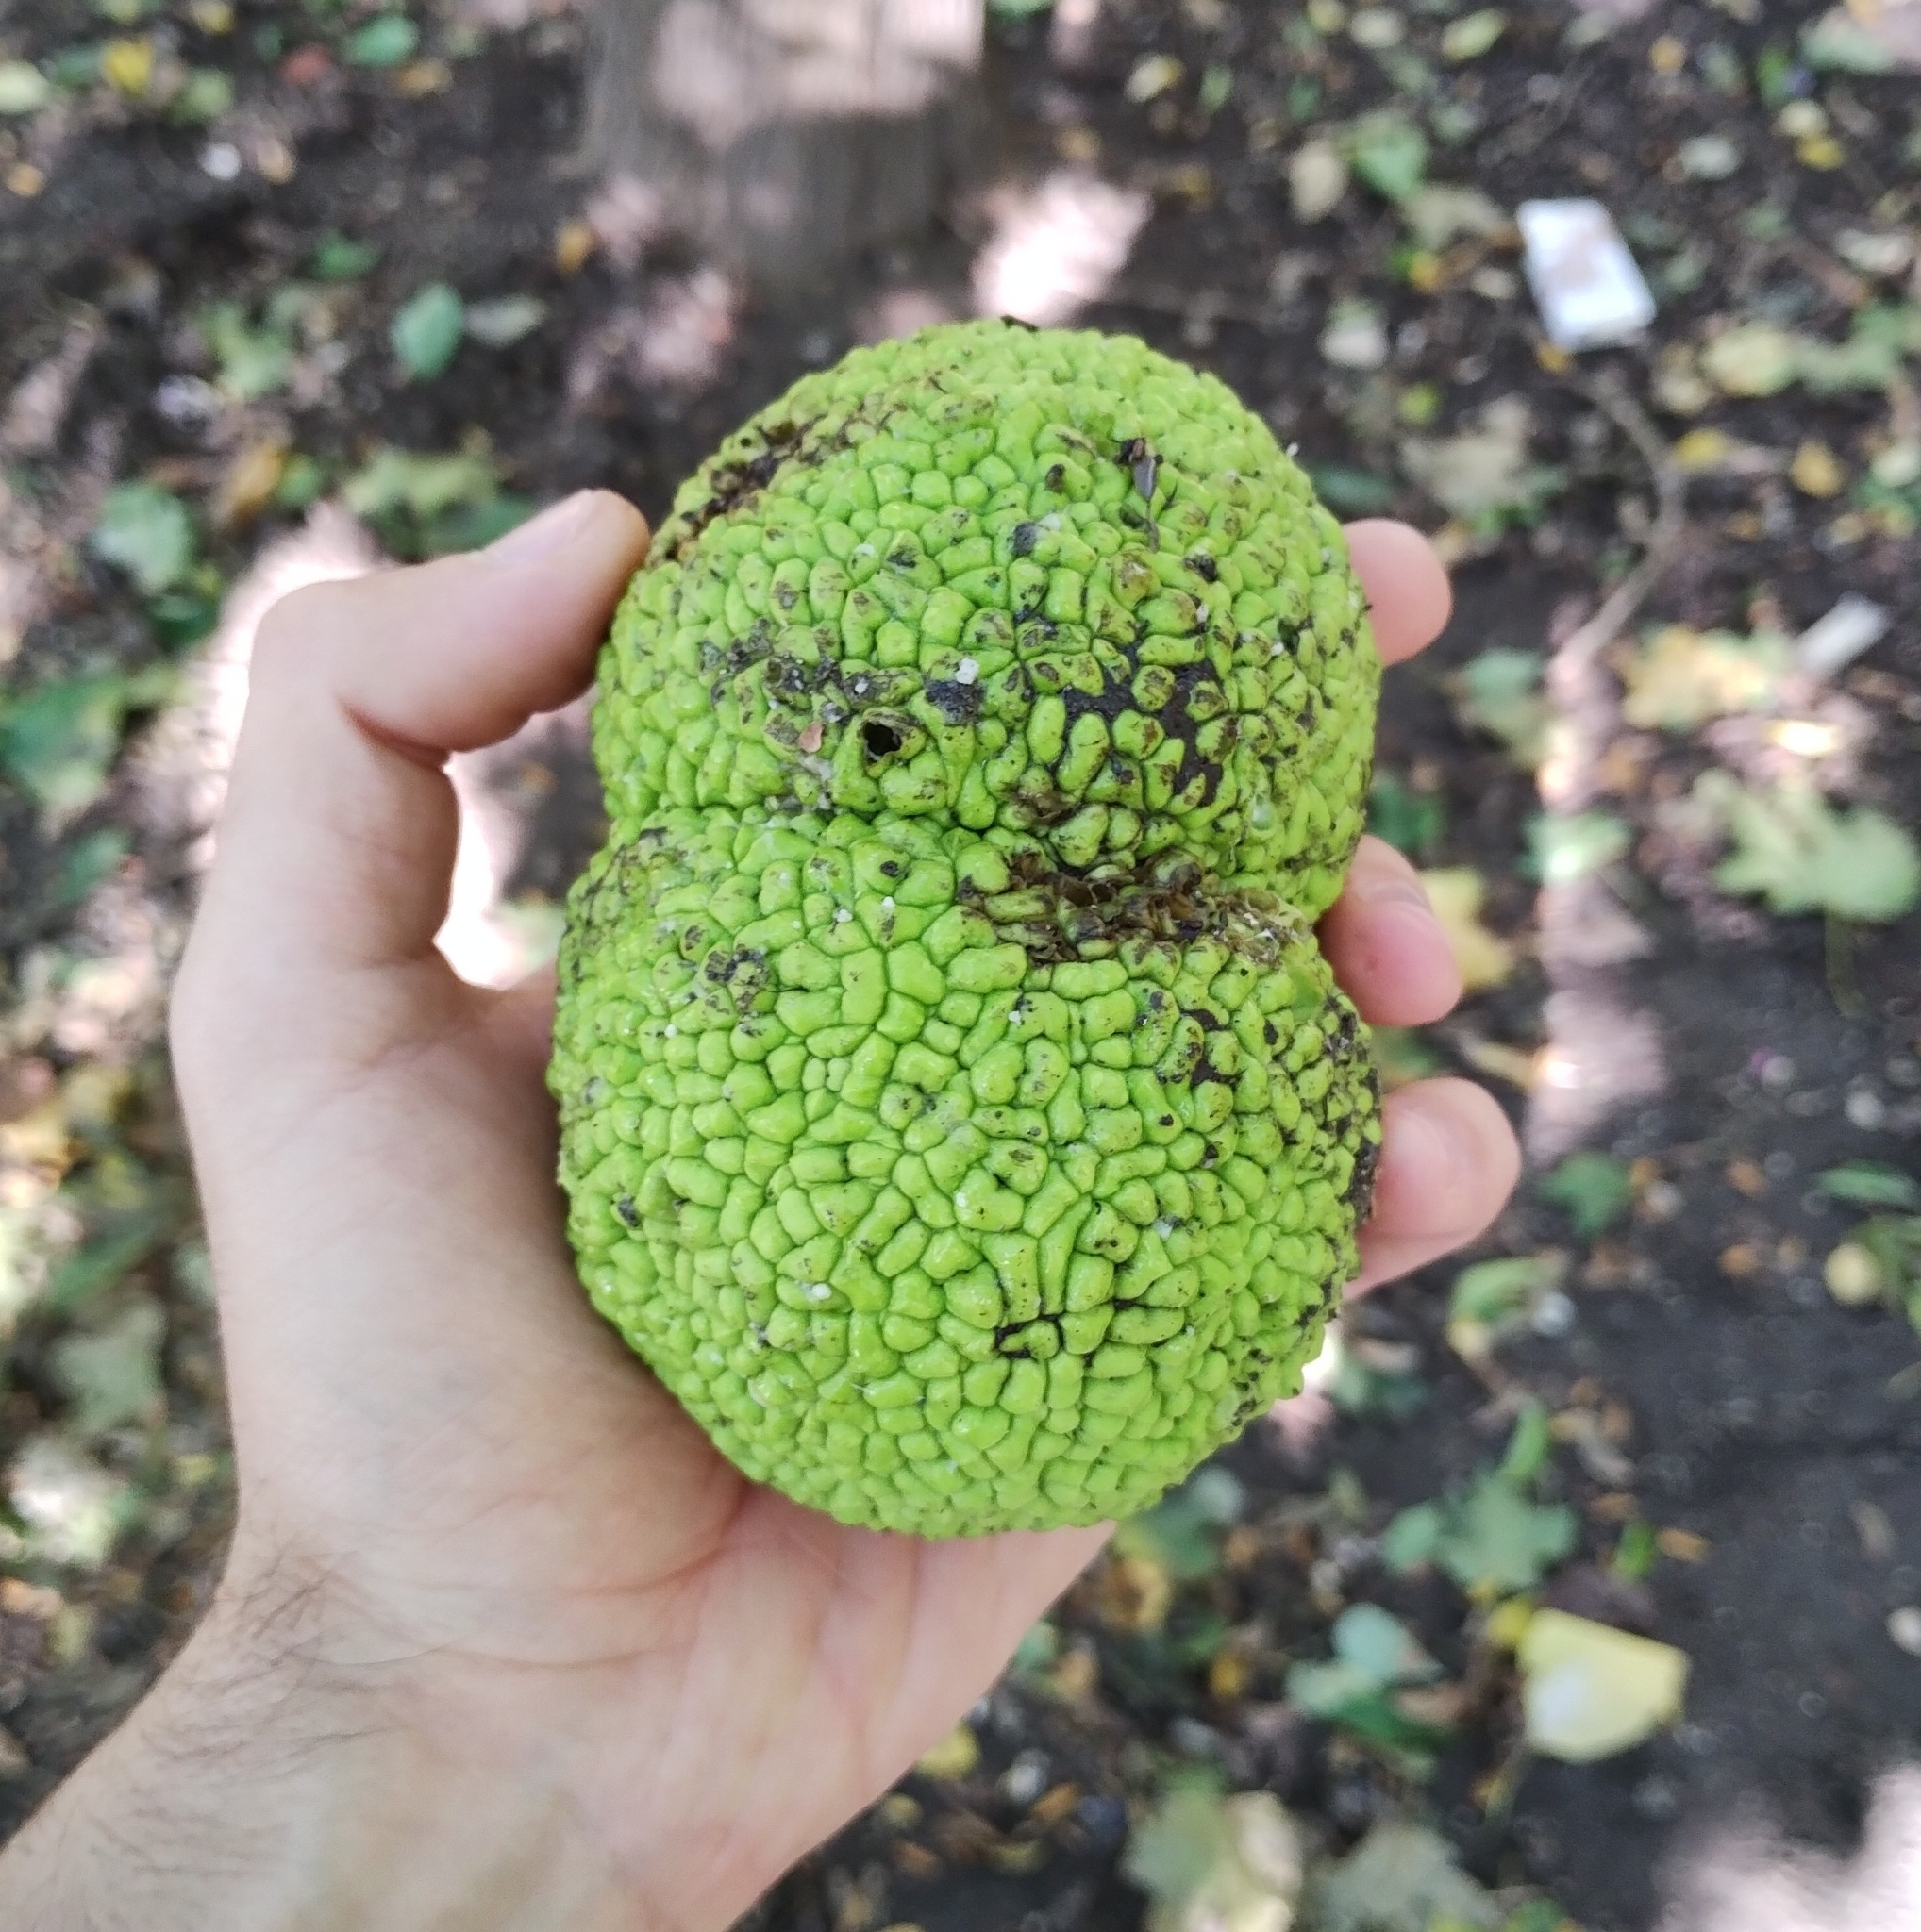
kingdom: Plantae
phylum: Tracheophyta
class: Magnoliopsida
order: Rosales
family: Moraceae
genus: Maclura
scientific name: Maclura pomifera
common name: Osage-orange
